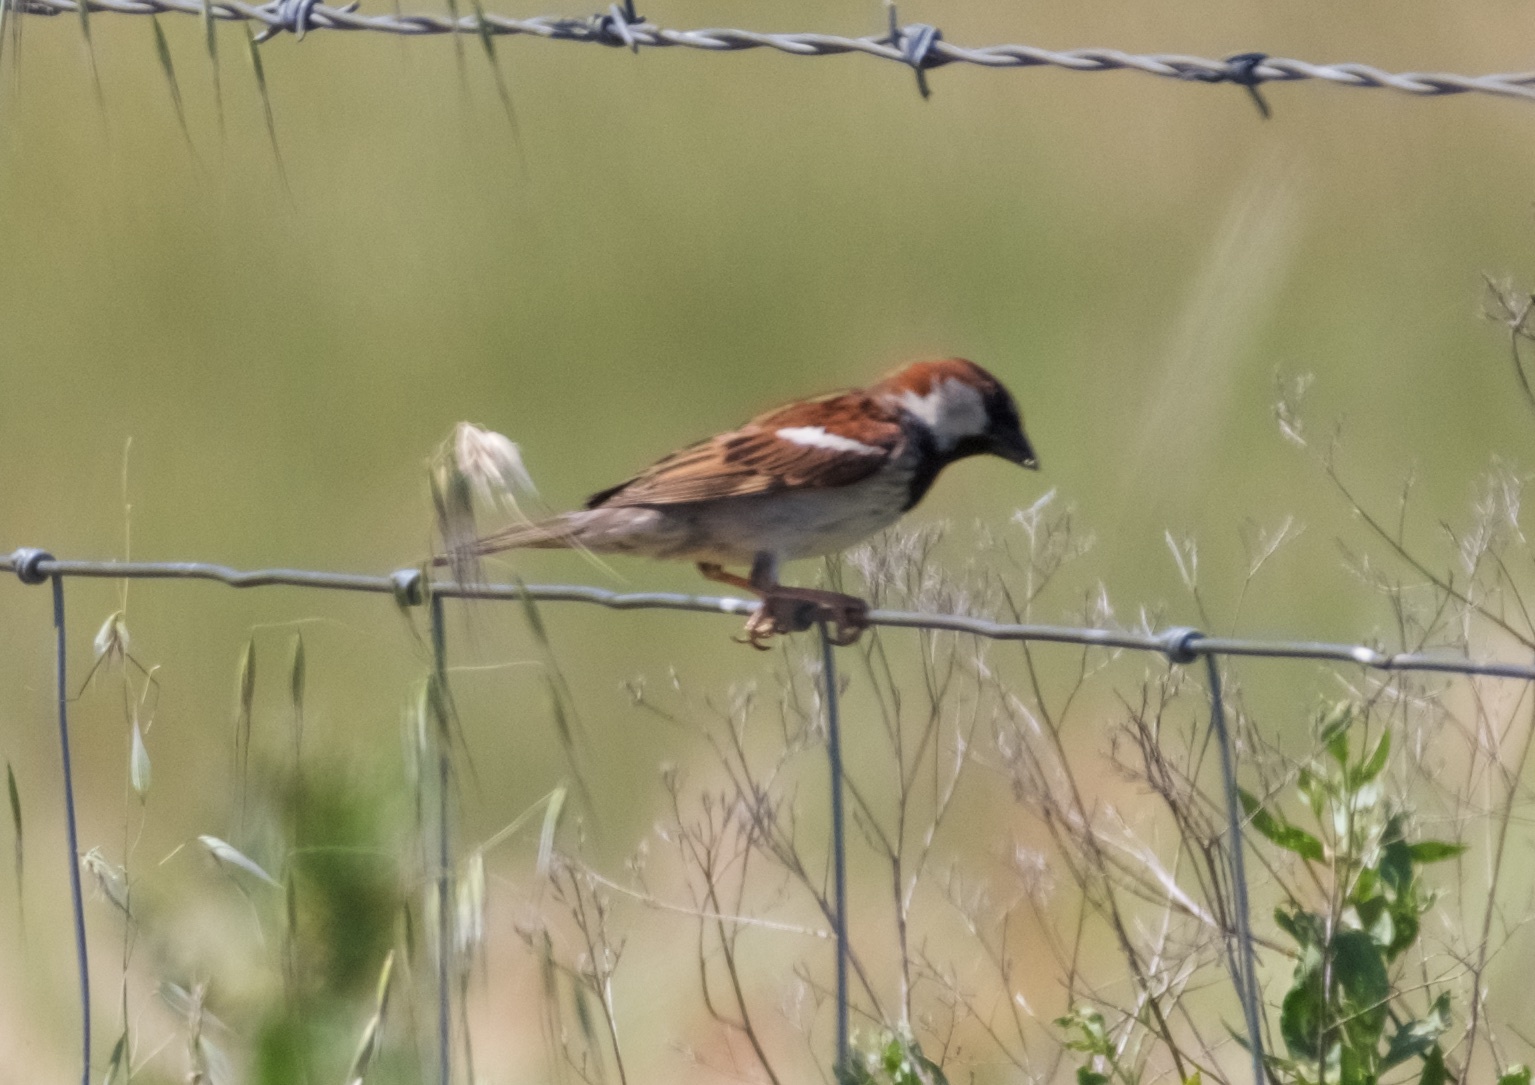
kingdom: Animalia
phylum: Chordata
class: Aves
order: Passeriformes
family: Passeridae
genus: Passer
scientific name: Passer domesticus
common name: House sparrow
